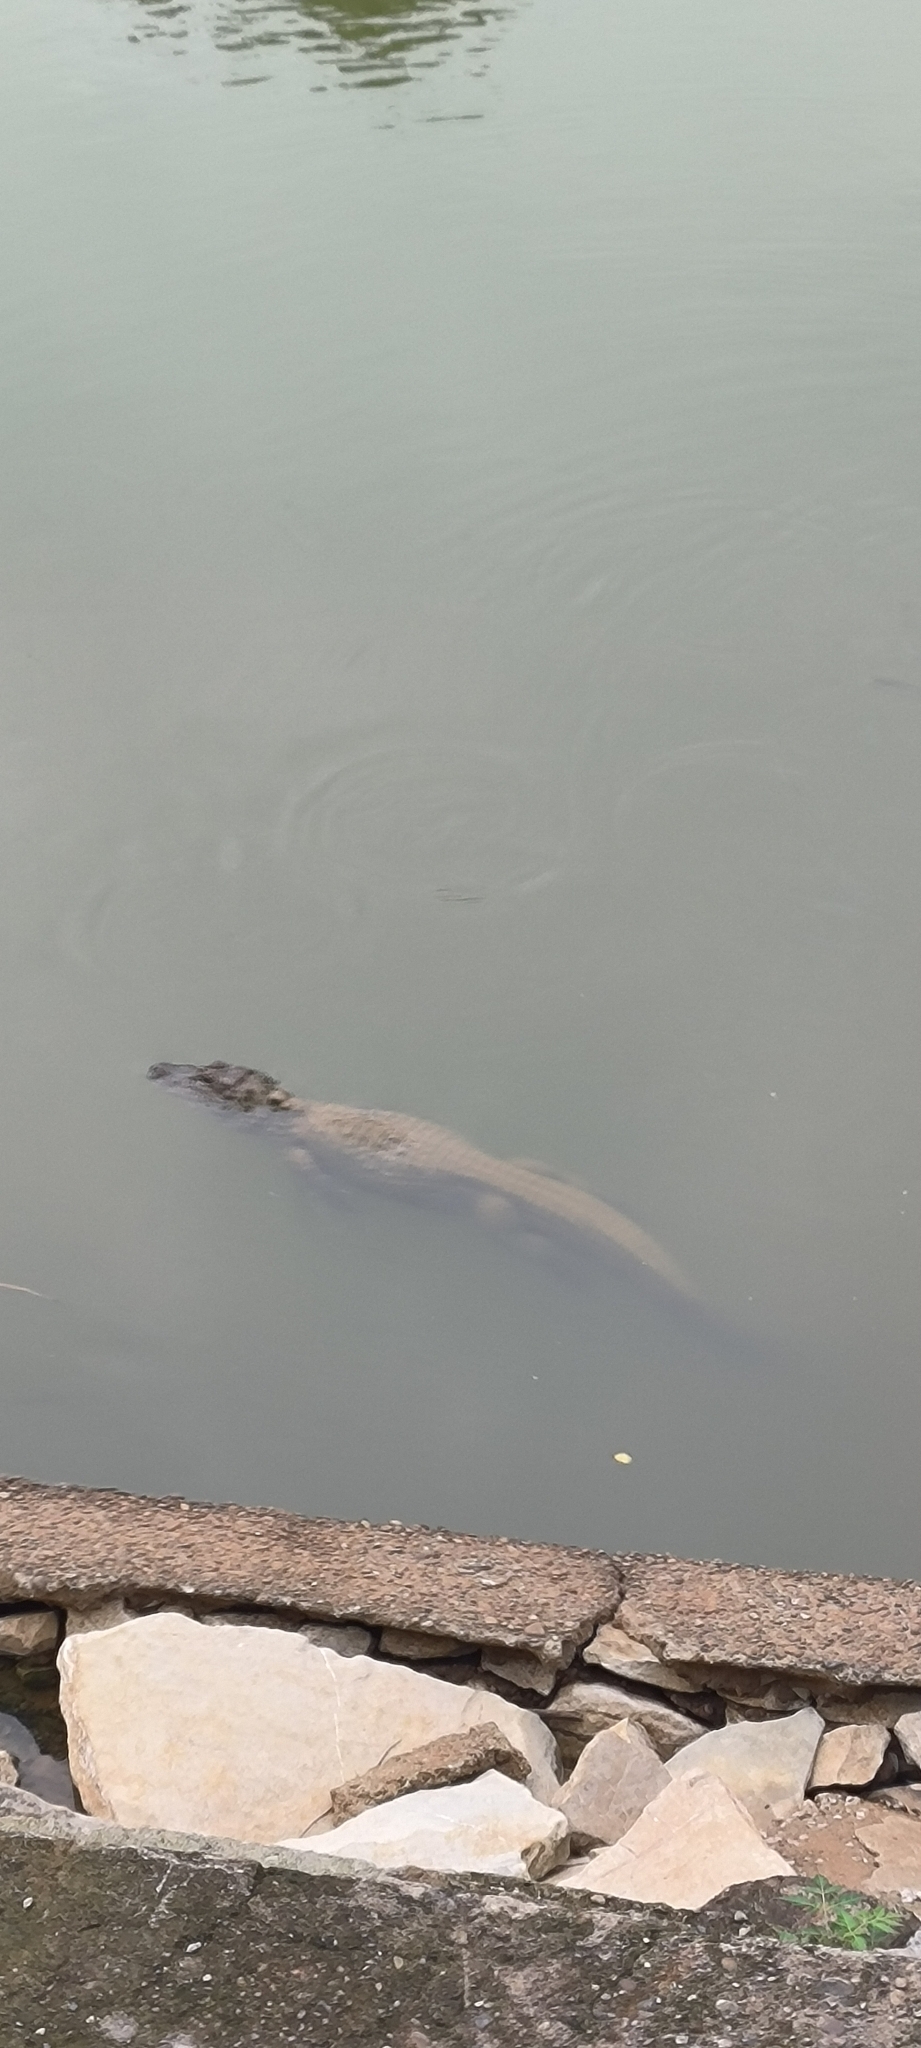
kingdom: Animalia
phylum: Chordata
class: Crocodylia
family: Alligatoridae
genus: Alligator
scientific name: Alligator sinensis
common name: Chinese alligator
